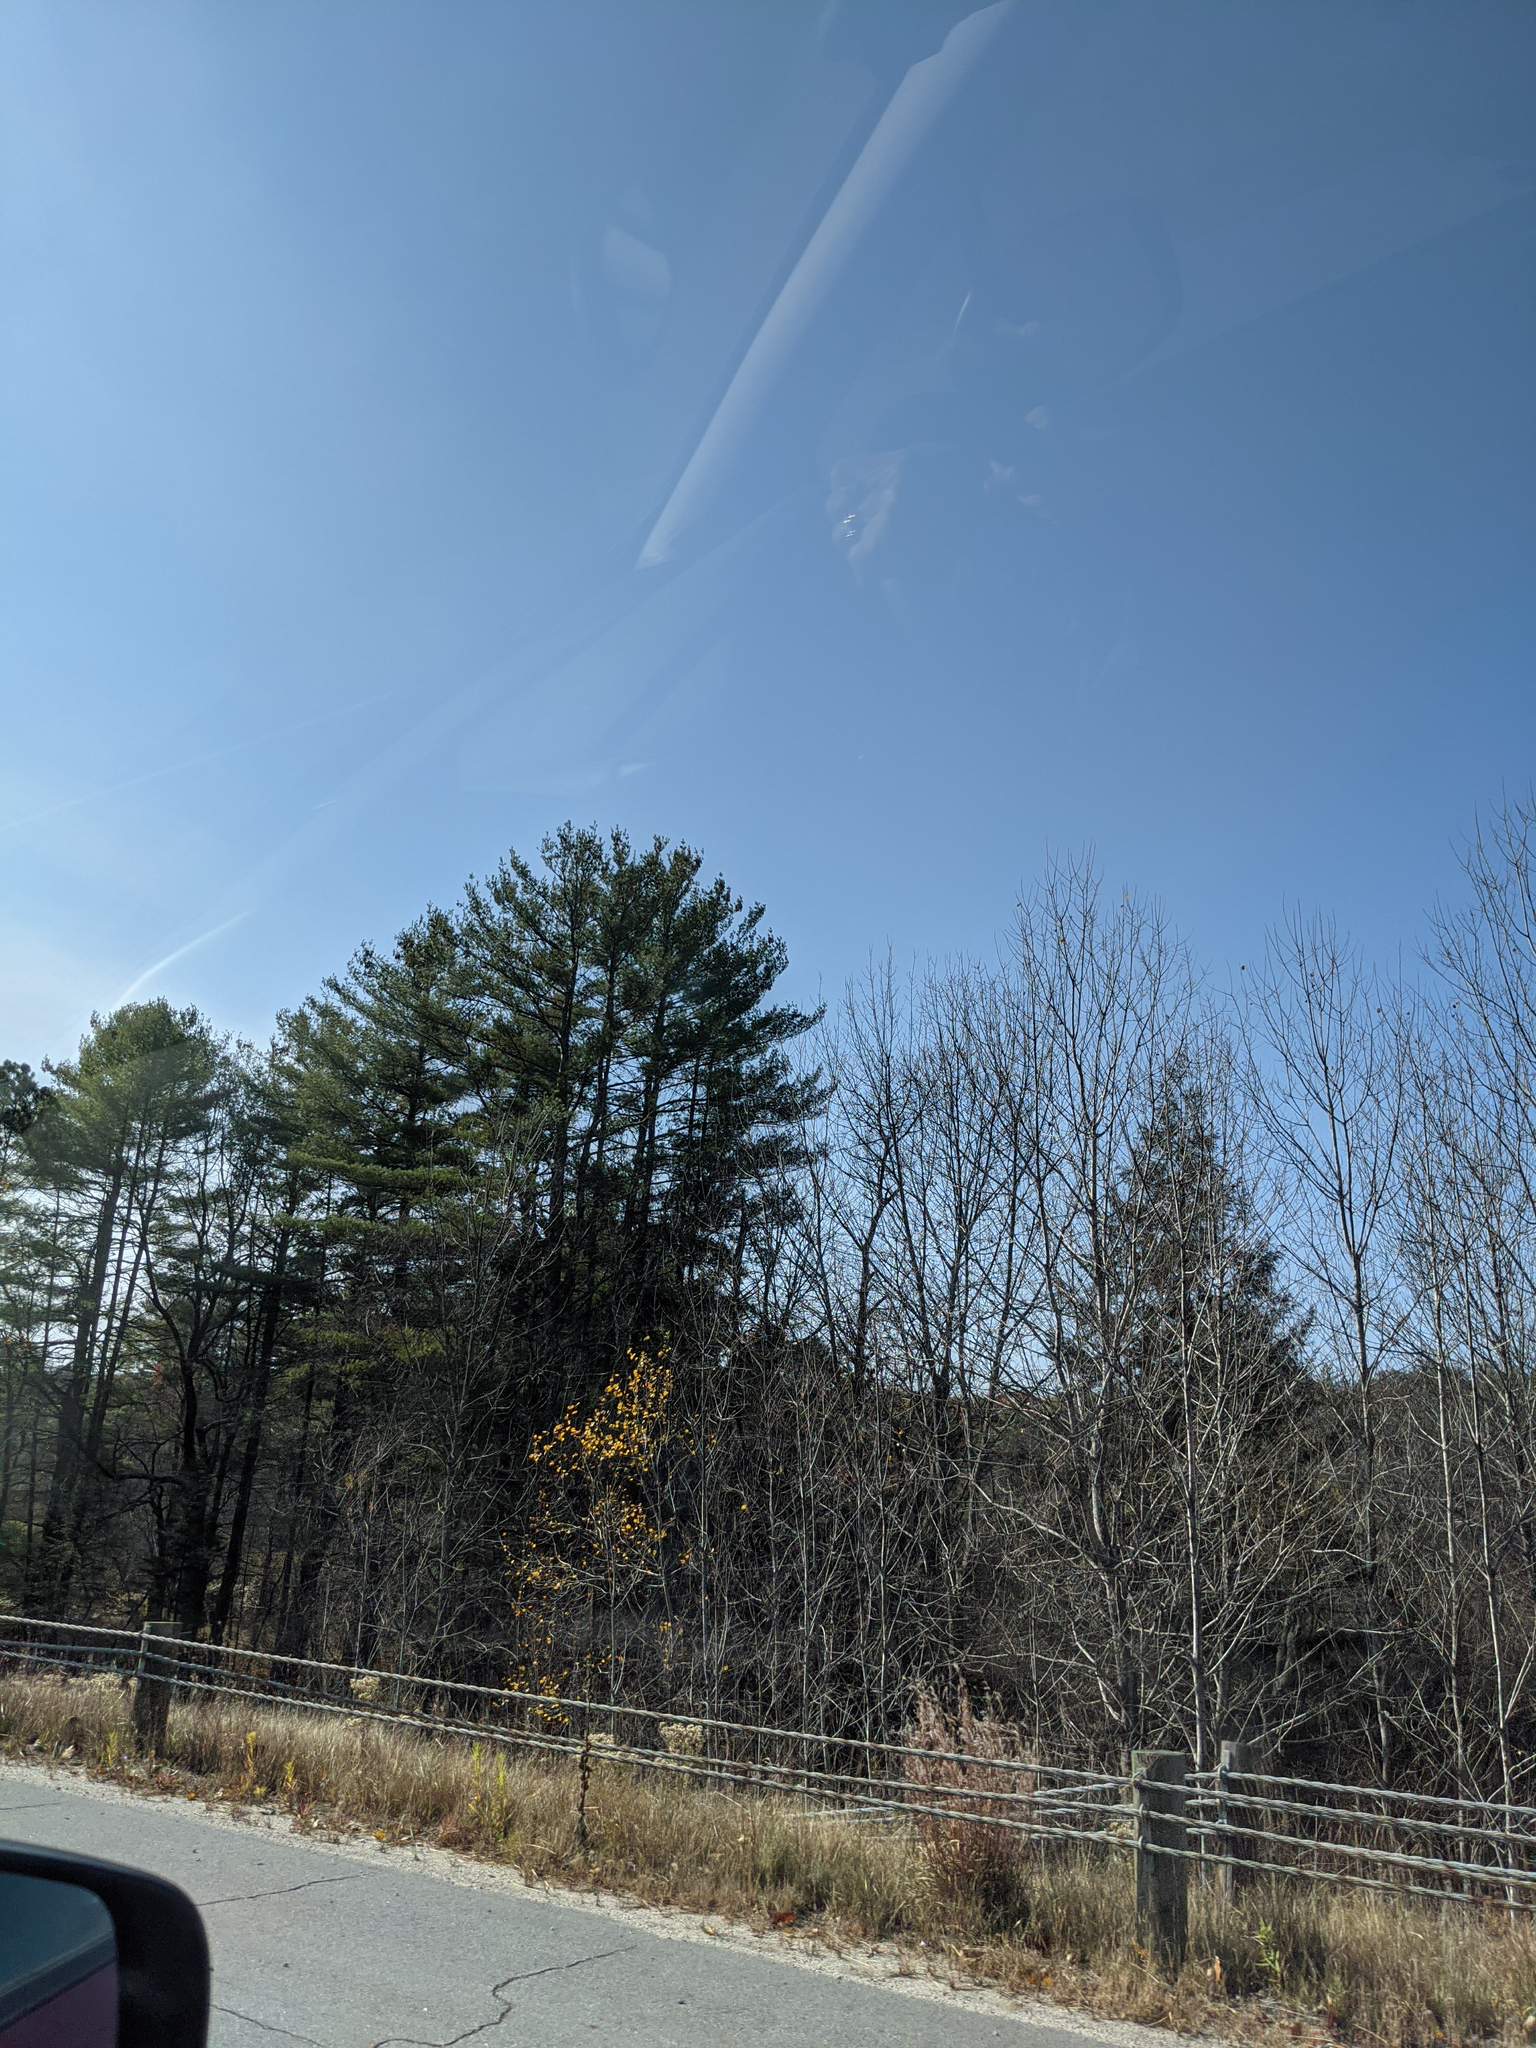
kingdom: Plantae
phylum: Tracheophyta
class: Pinopsida
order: Pinales
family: Pinaceae
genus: Pinus
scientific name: Pinus strobus
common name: Weymouth pine
